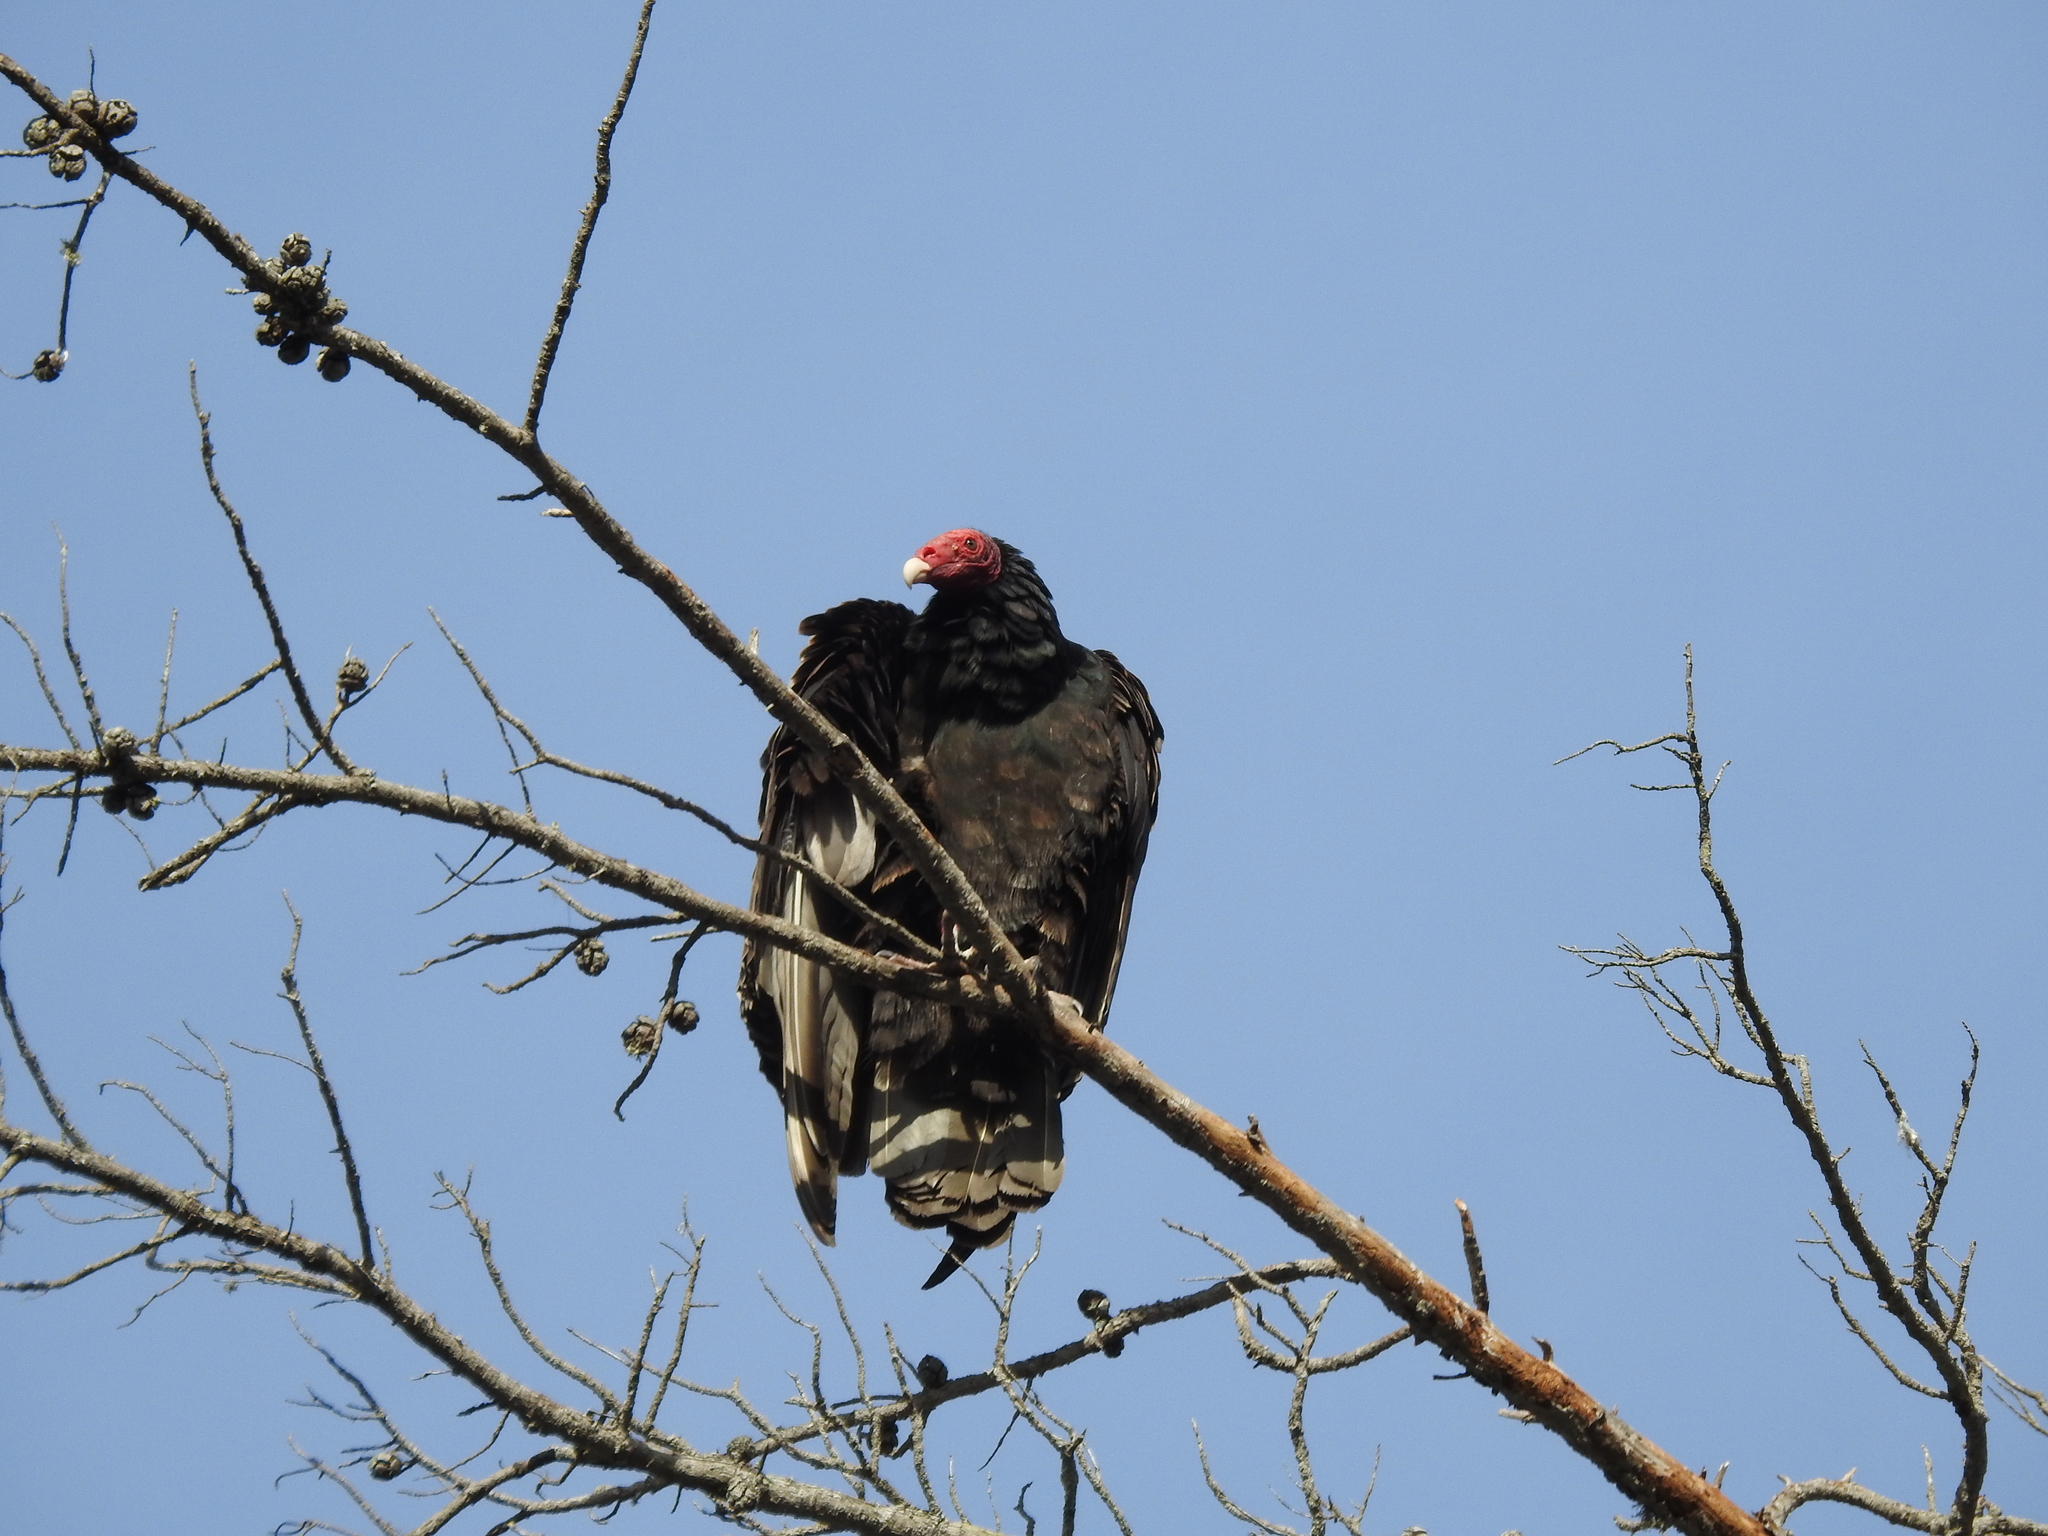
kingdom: Animalia
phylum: Chordata
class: Aves
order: Accipitriformes
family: Cathartidae
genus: Cathartes
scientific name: Cathartes aura
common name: Turkey vulture
